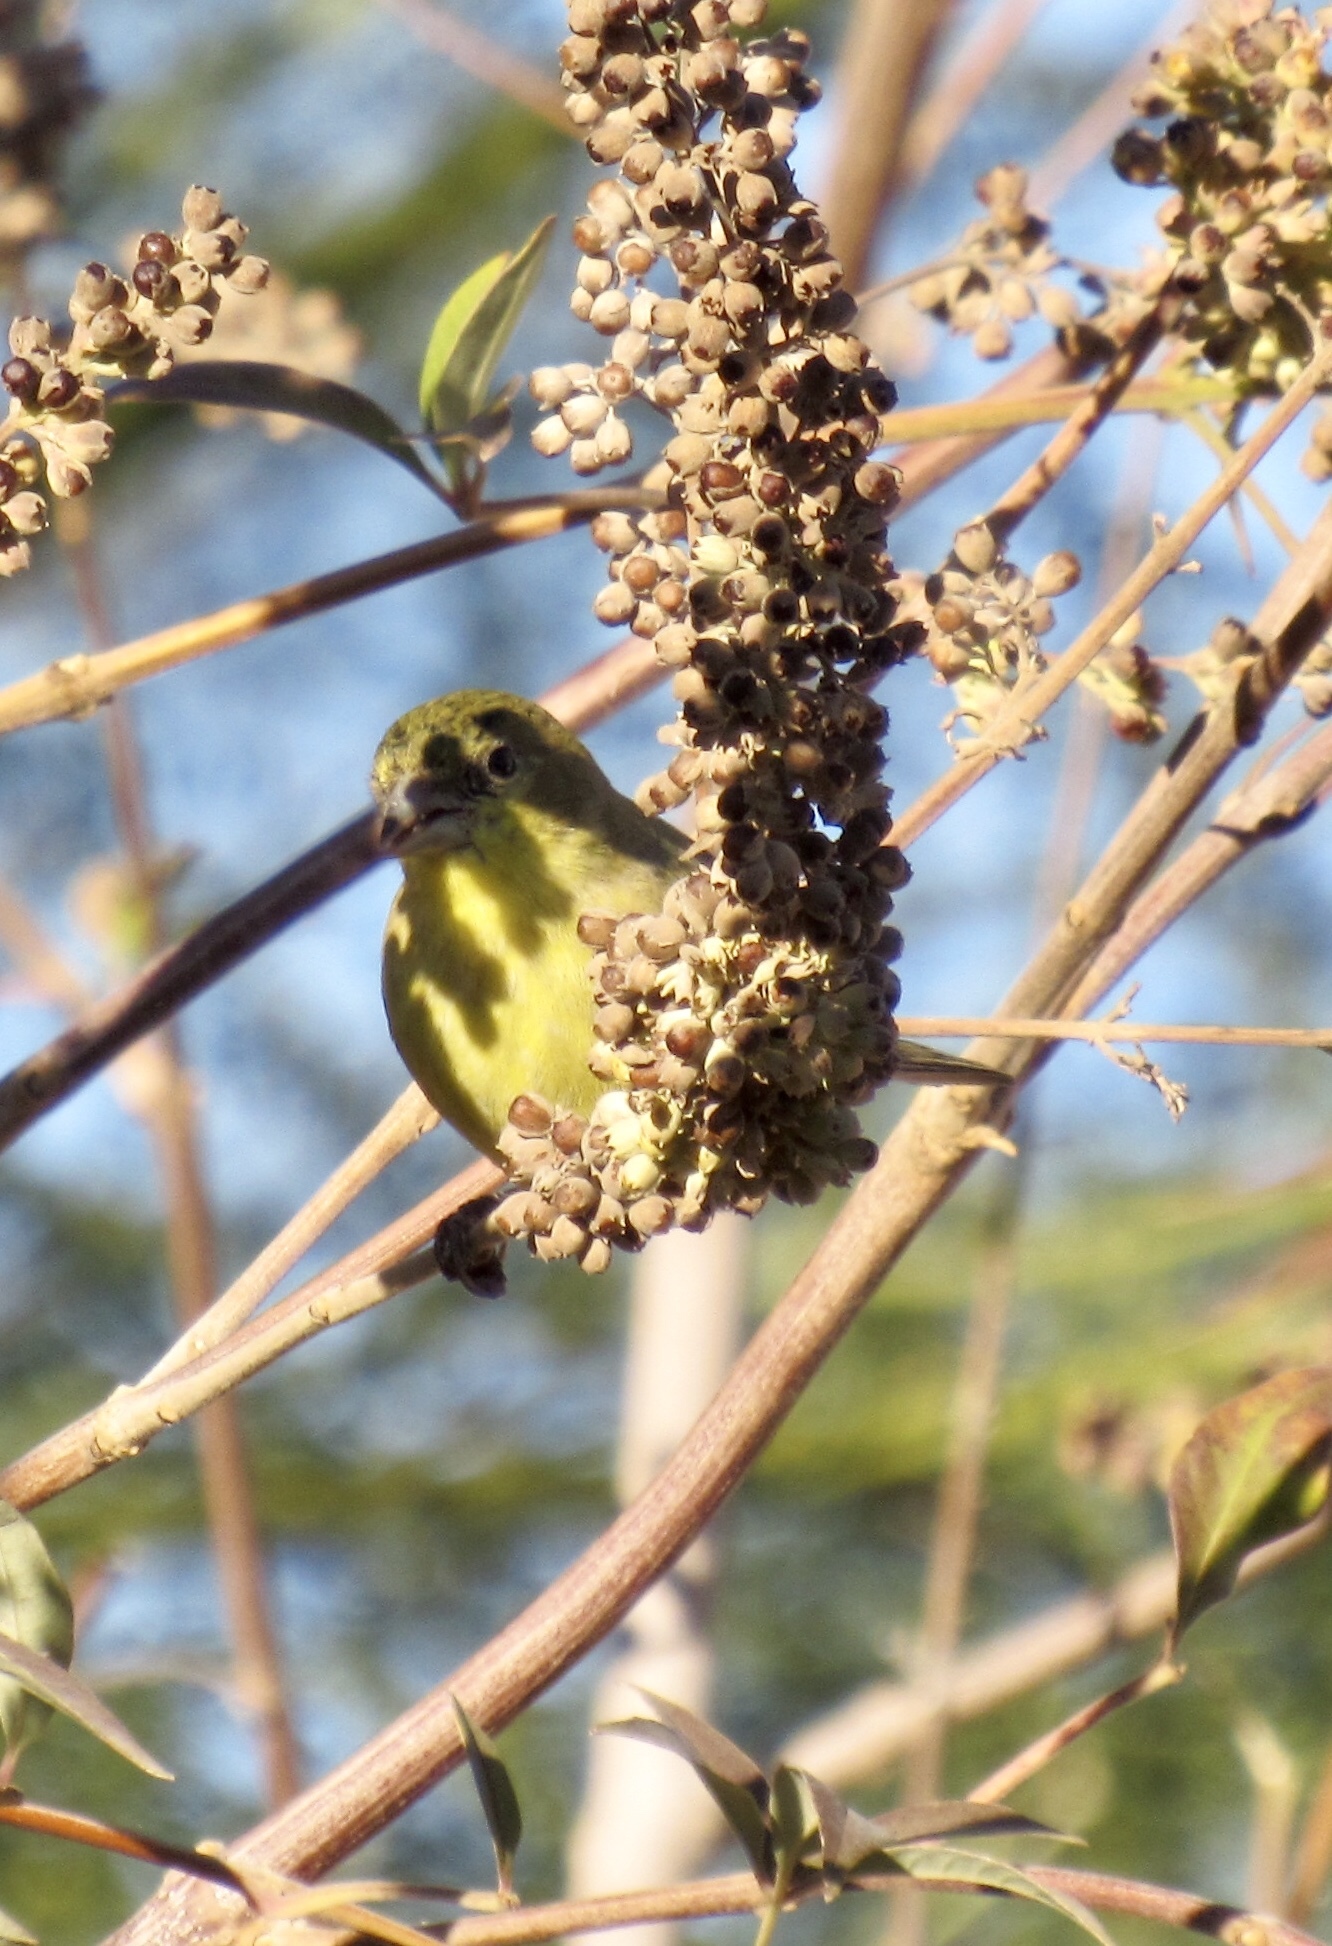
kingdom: Animalia
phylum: Chordata
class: Aves
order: Passeriformes
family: Fringillidae
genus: Spinus
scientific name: Spinus psaltria
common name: Lesser goldfinch
